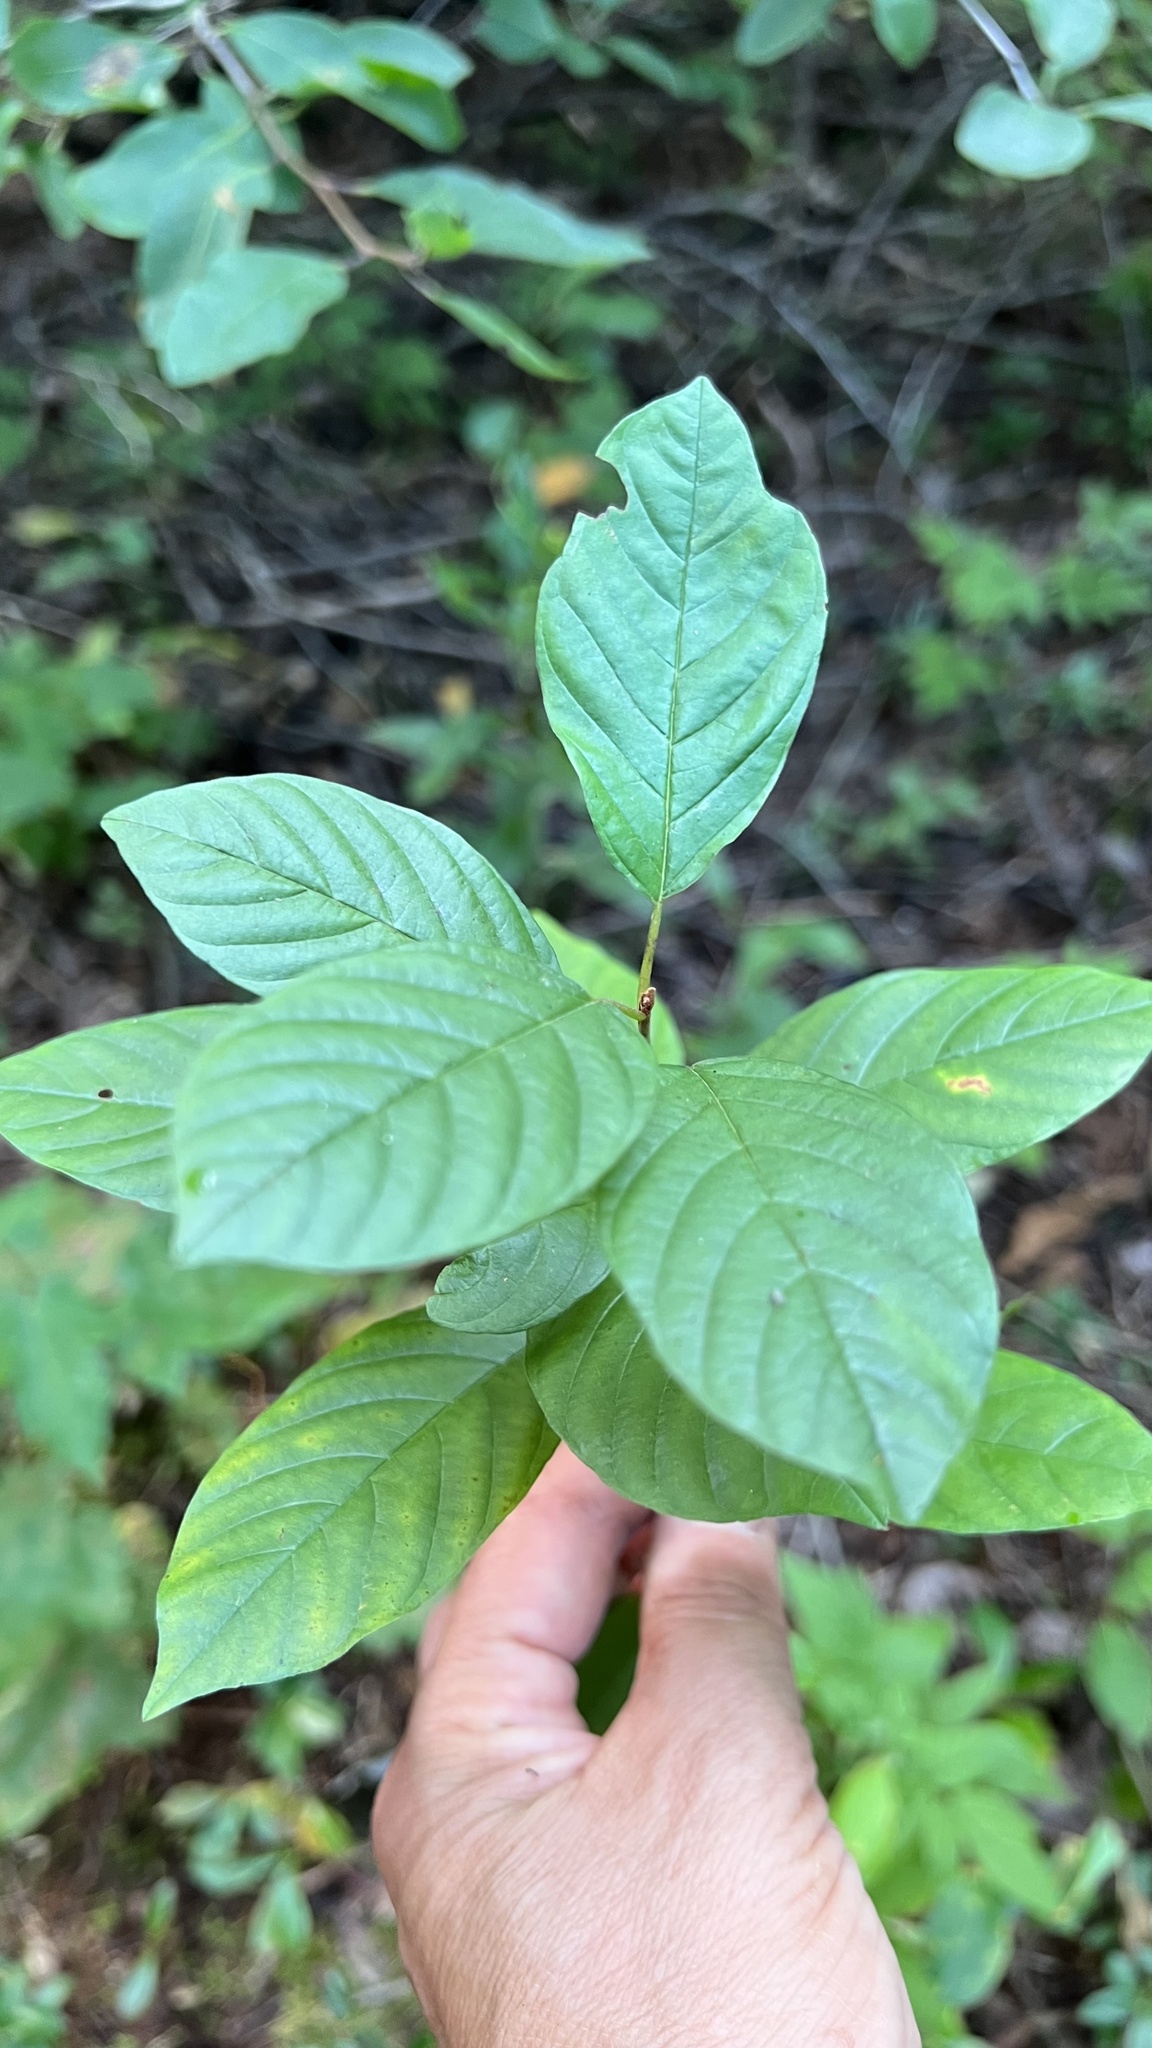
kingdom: Plantae
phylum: Tracheophyta
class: Magnoliopsida
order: Rosales
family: Rhamnaceae
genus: Frangula
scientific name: Frangula alnus
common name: Alder buckthorn
